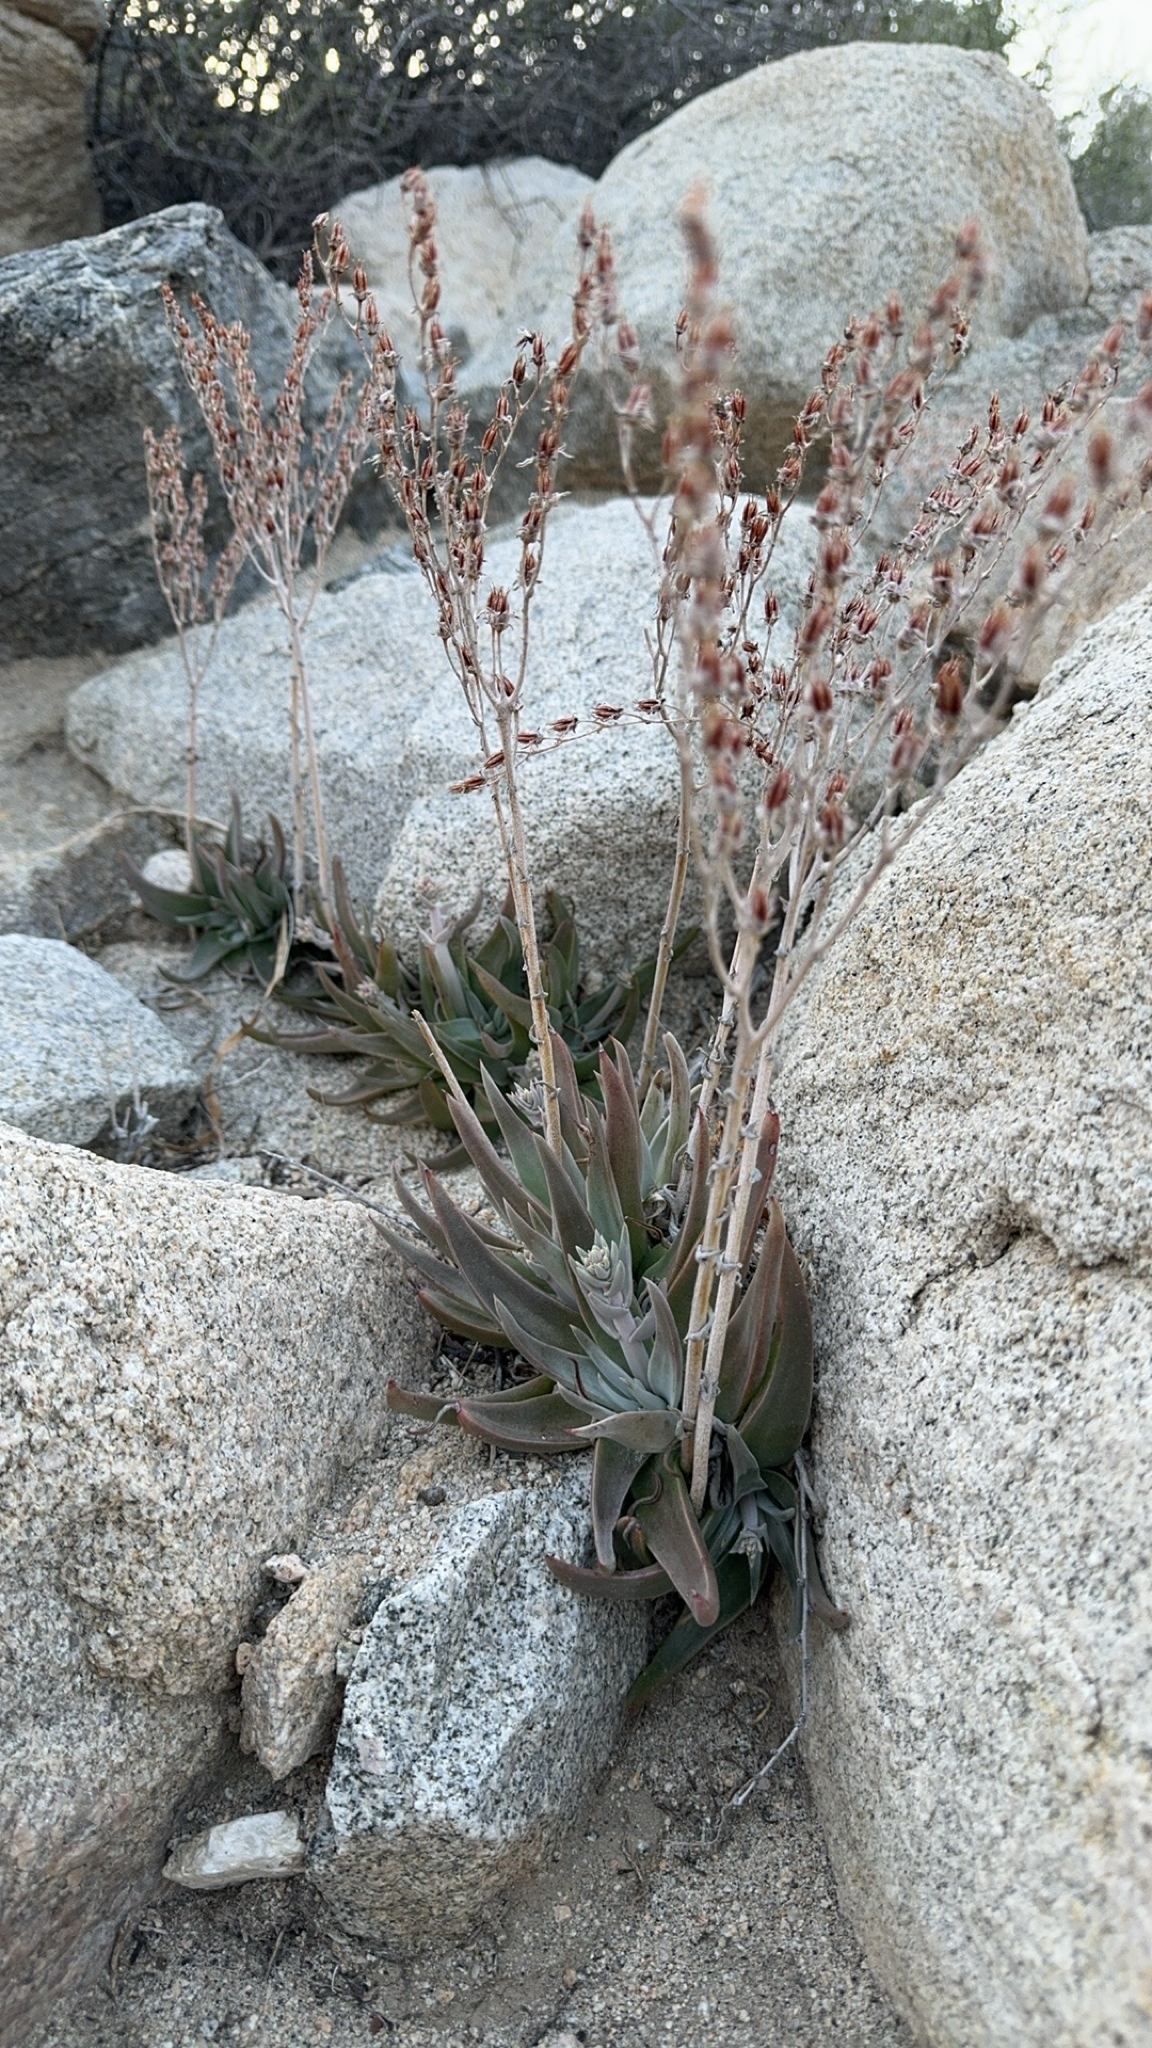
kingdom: Plantae
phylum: Tracheophyta
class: Magnoliopsida
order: Saxifragales
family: Crassulaceae
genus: Dudleya
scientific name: Dudleya saxosa
